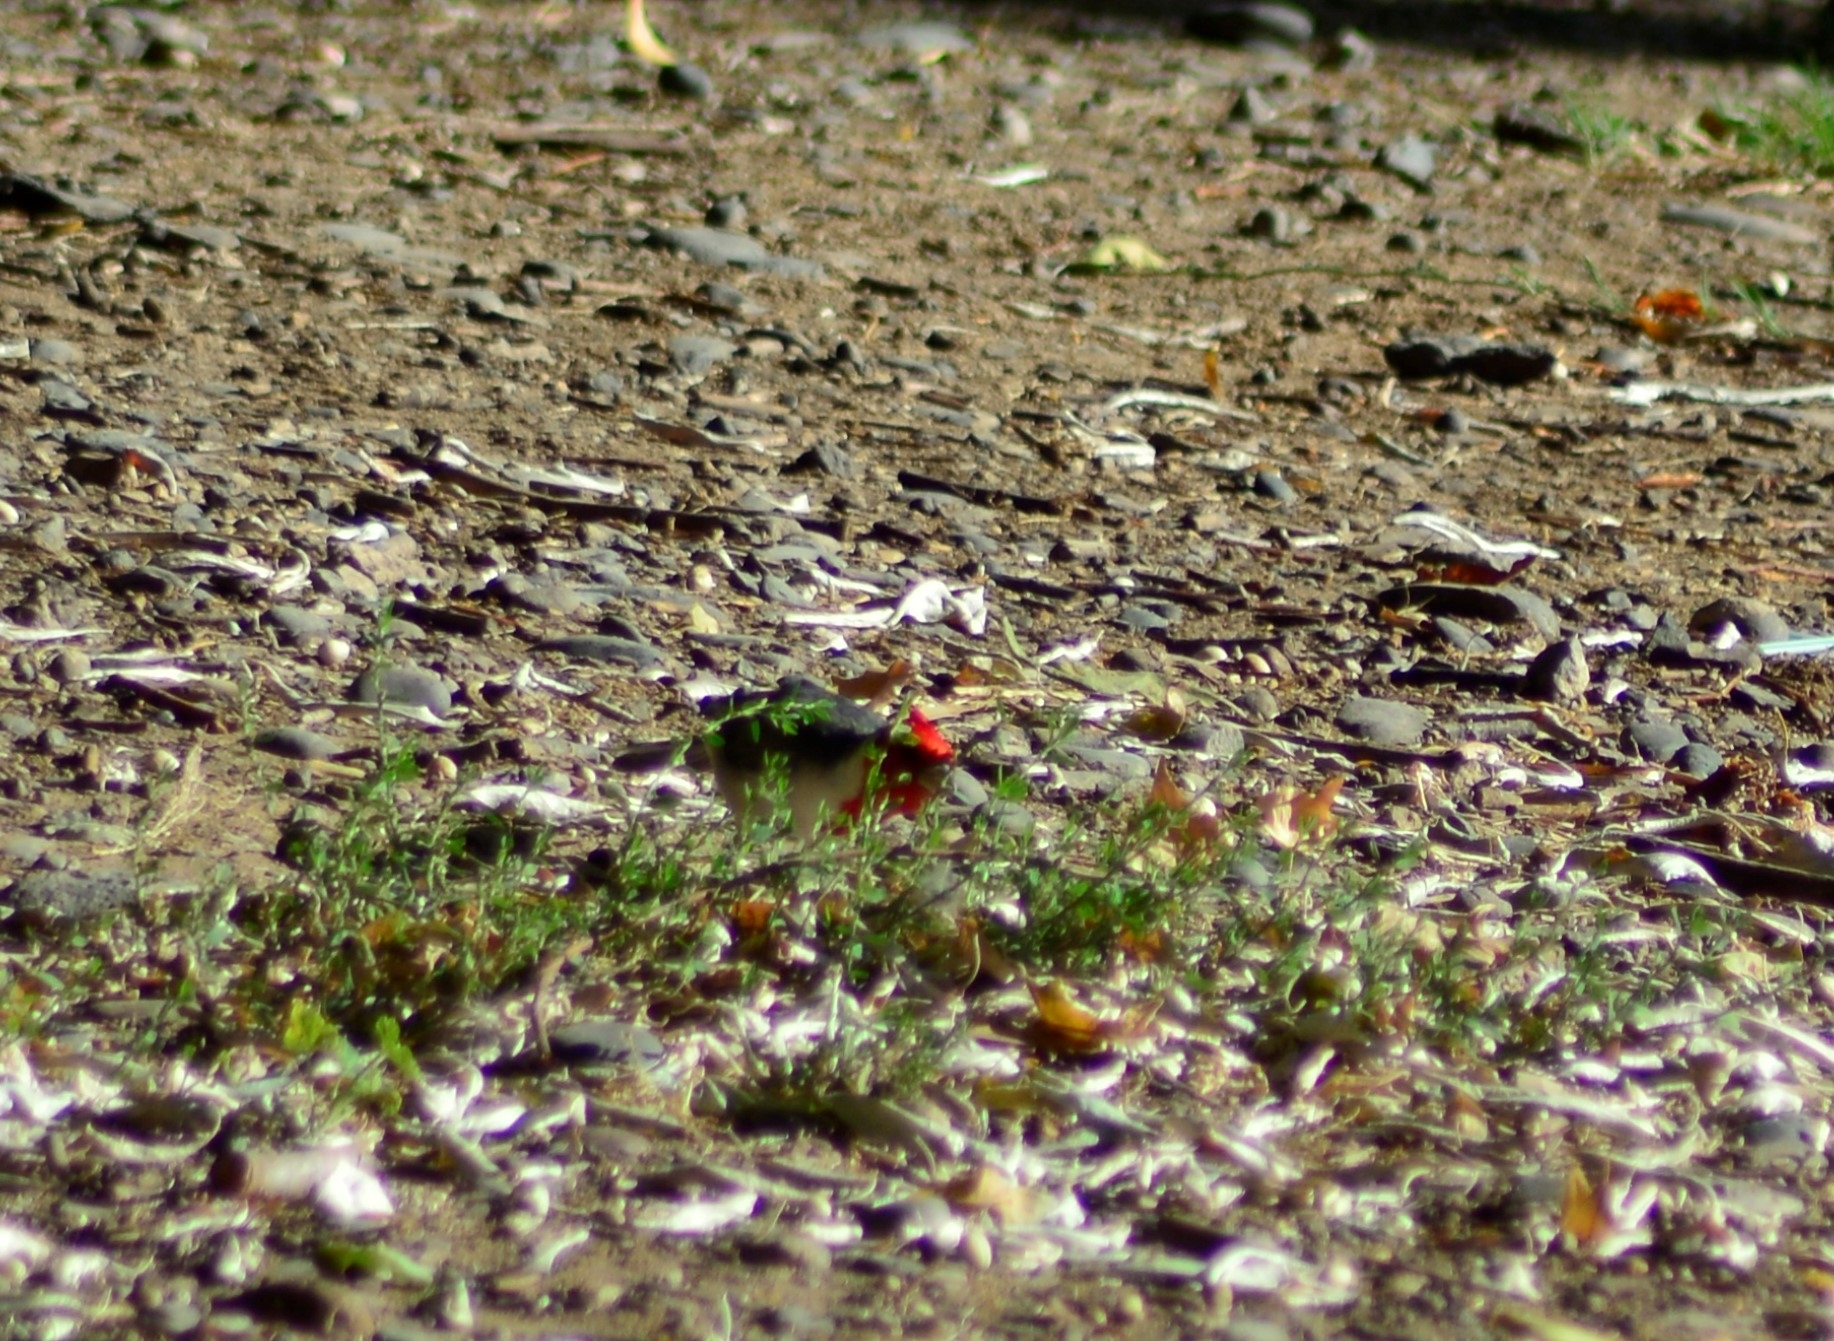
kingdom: Animalia
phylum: Chordata
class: Aves
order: Passeriformes
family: Thraupidae
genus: Paroaria
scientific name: Paroaria coronata
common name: Red-crested cardinal
